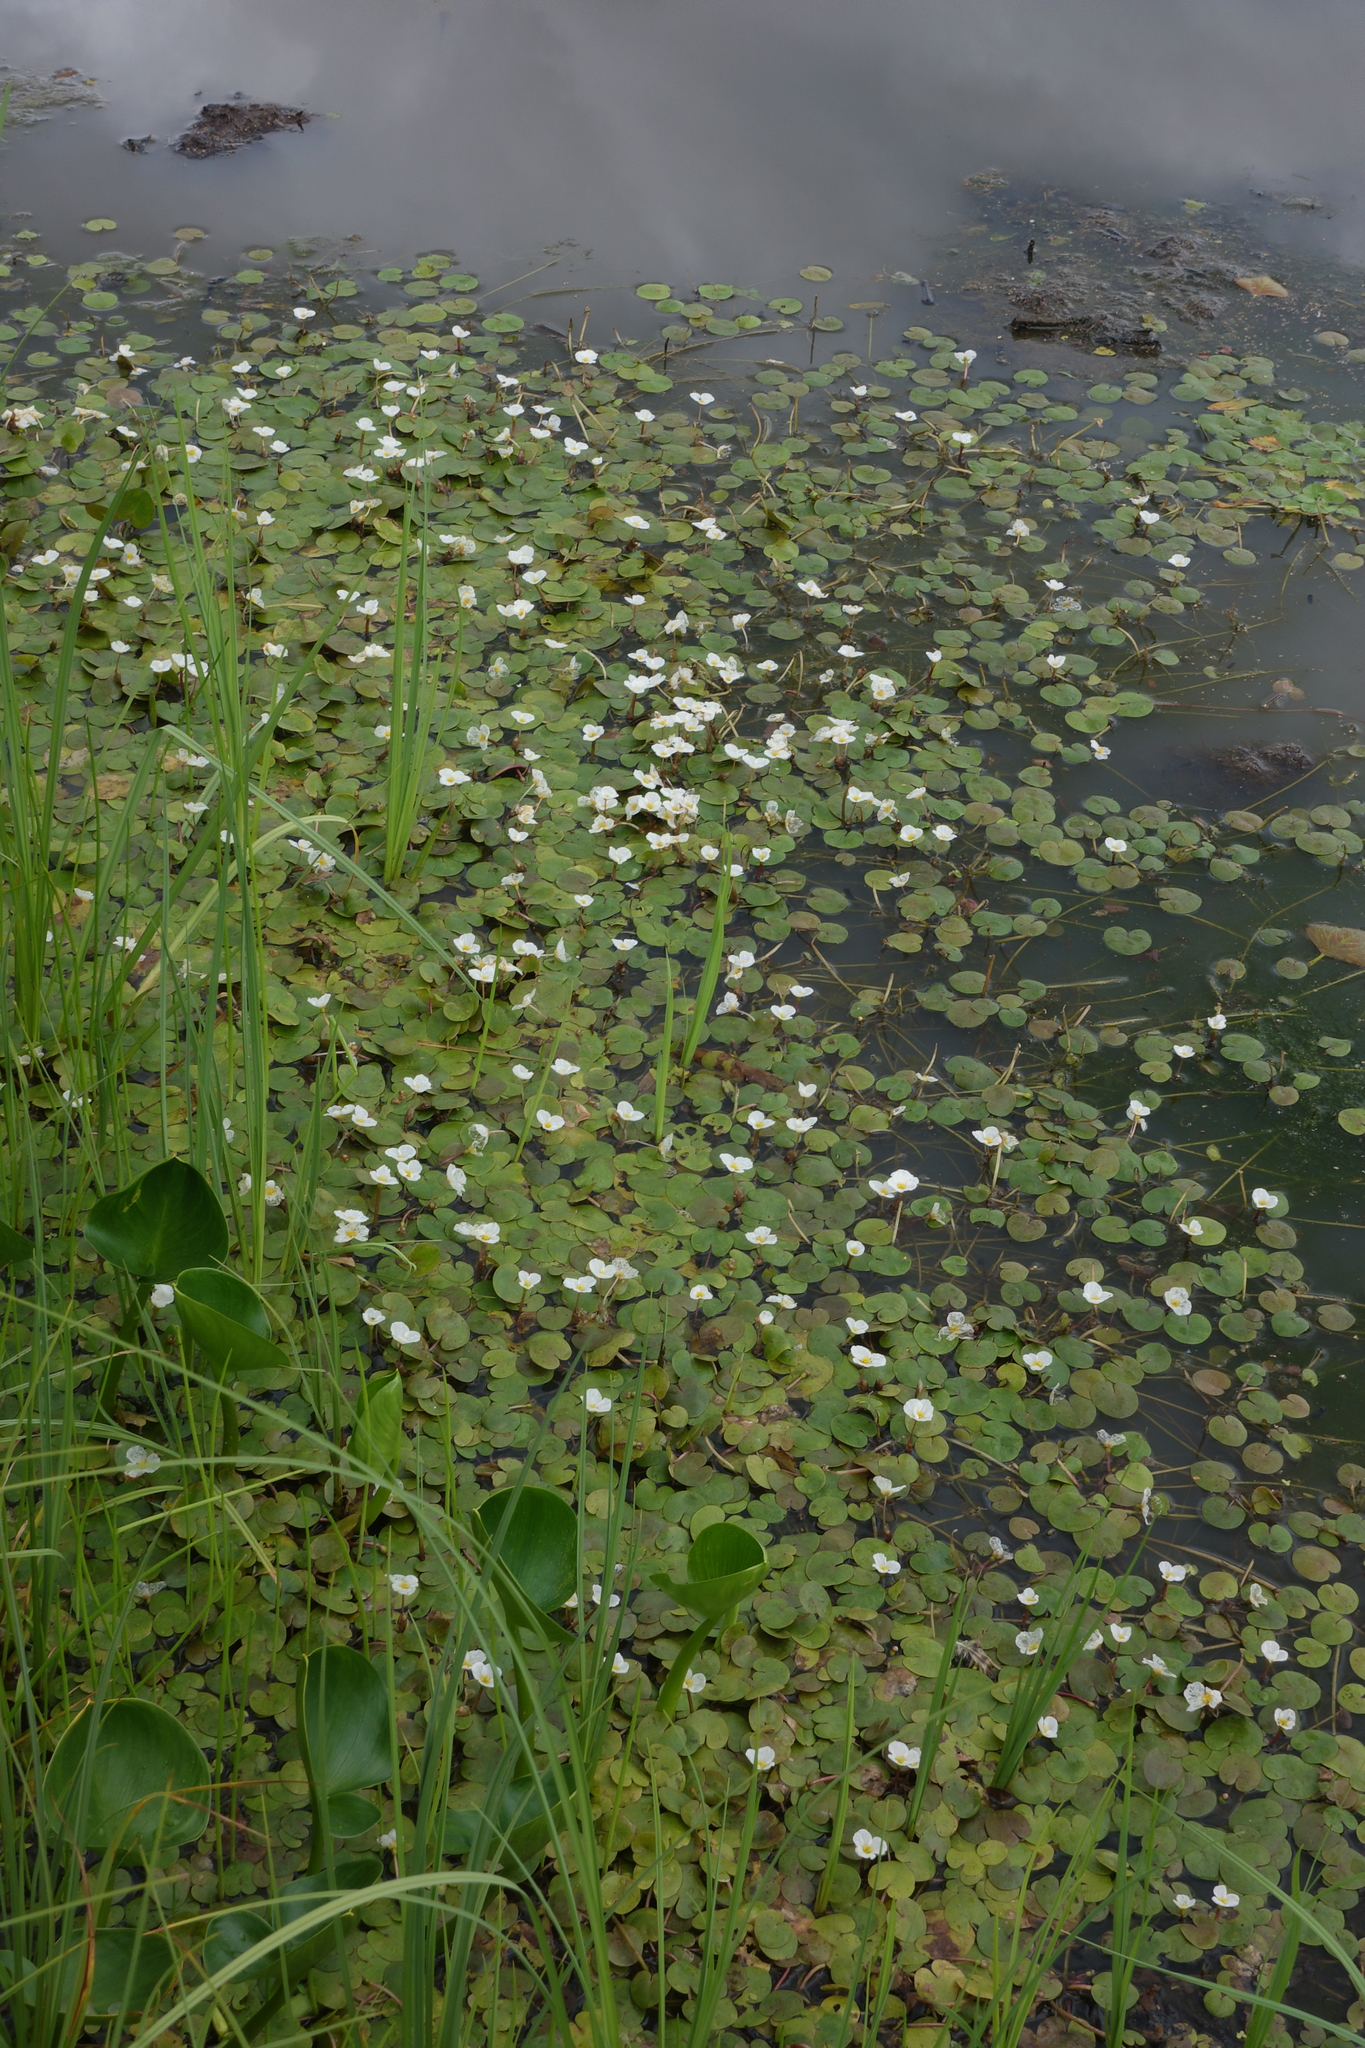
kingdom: Plantae
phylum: Tracheophyta
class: Liliopsida
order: Alismatales
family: Hydrocharitaceae
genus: Hydrocharis
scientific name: Hydrocharis morsus-ranae
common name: Frogbit
